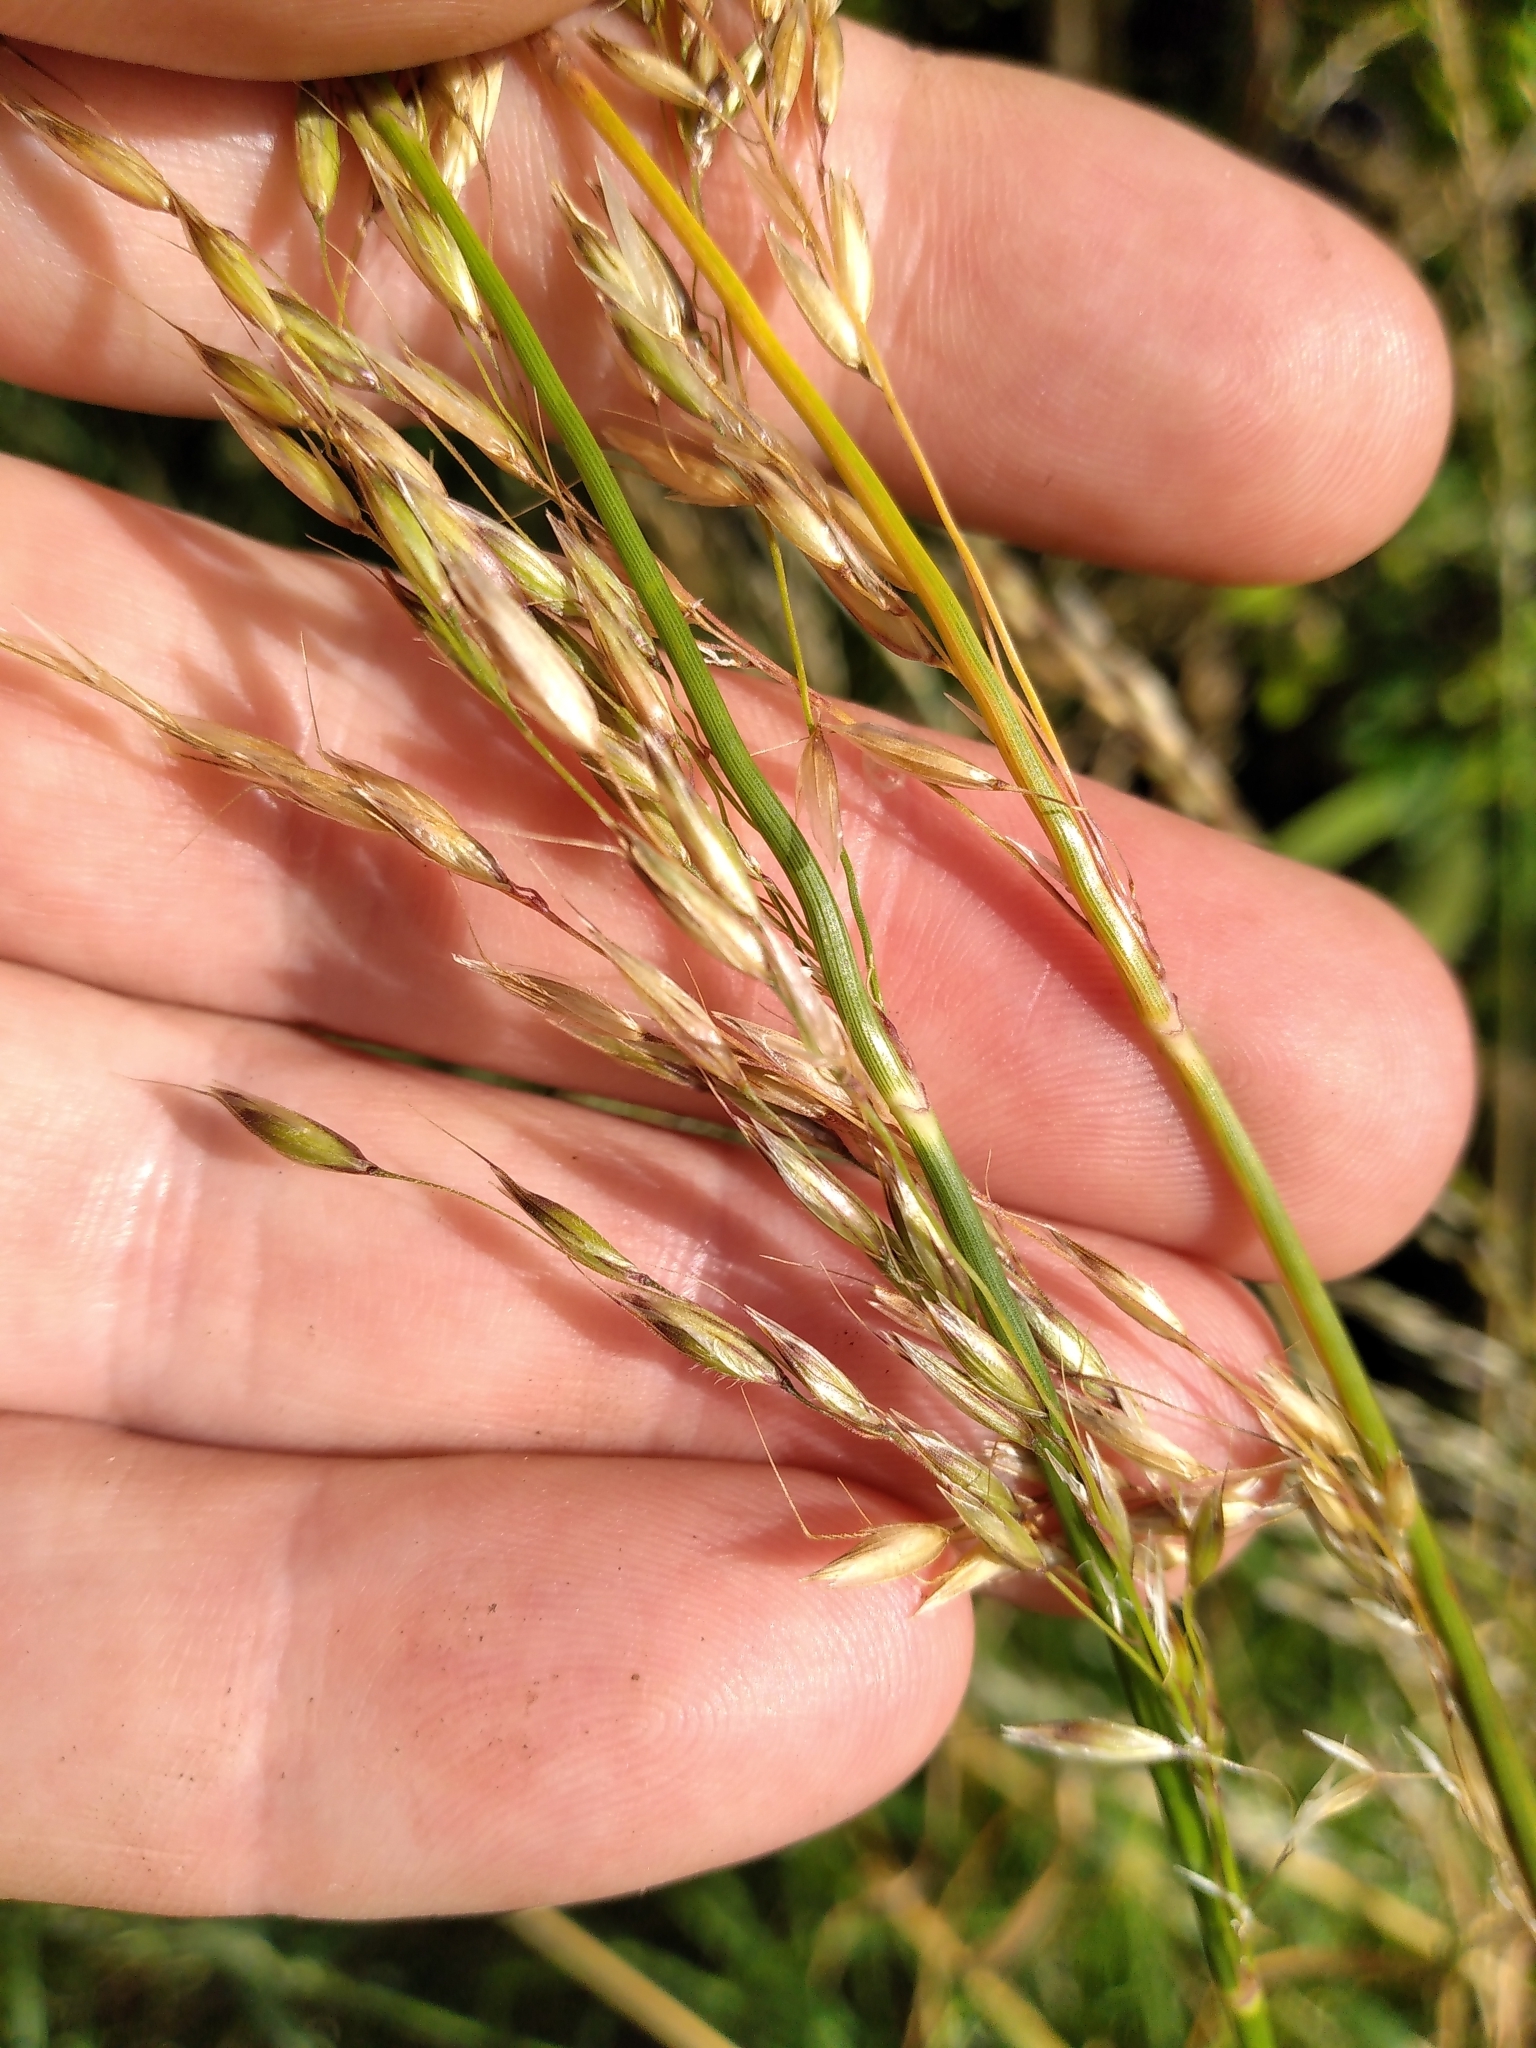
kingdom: Plantae
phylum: Tracheophyta
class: Liliopsida
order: Poales
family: Poaceae
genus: Arrhenatherum
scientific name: Arrhenatherum elatius
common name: Tall oatgrass
